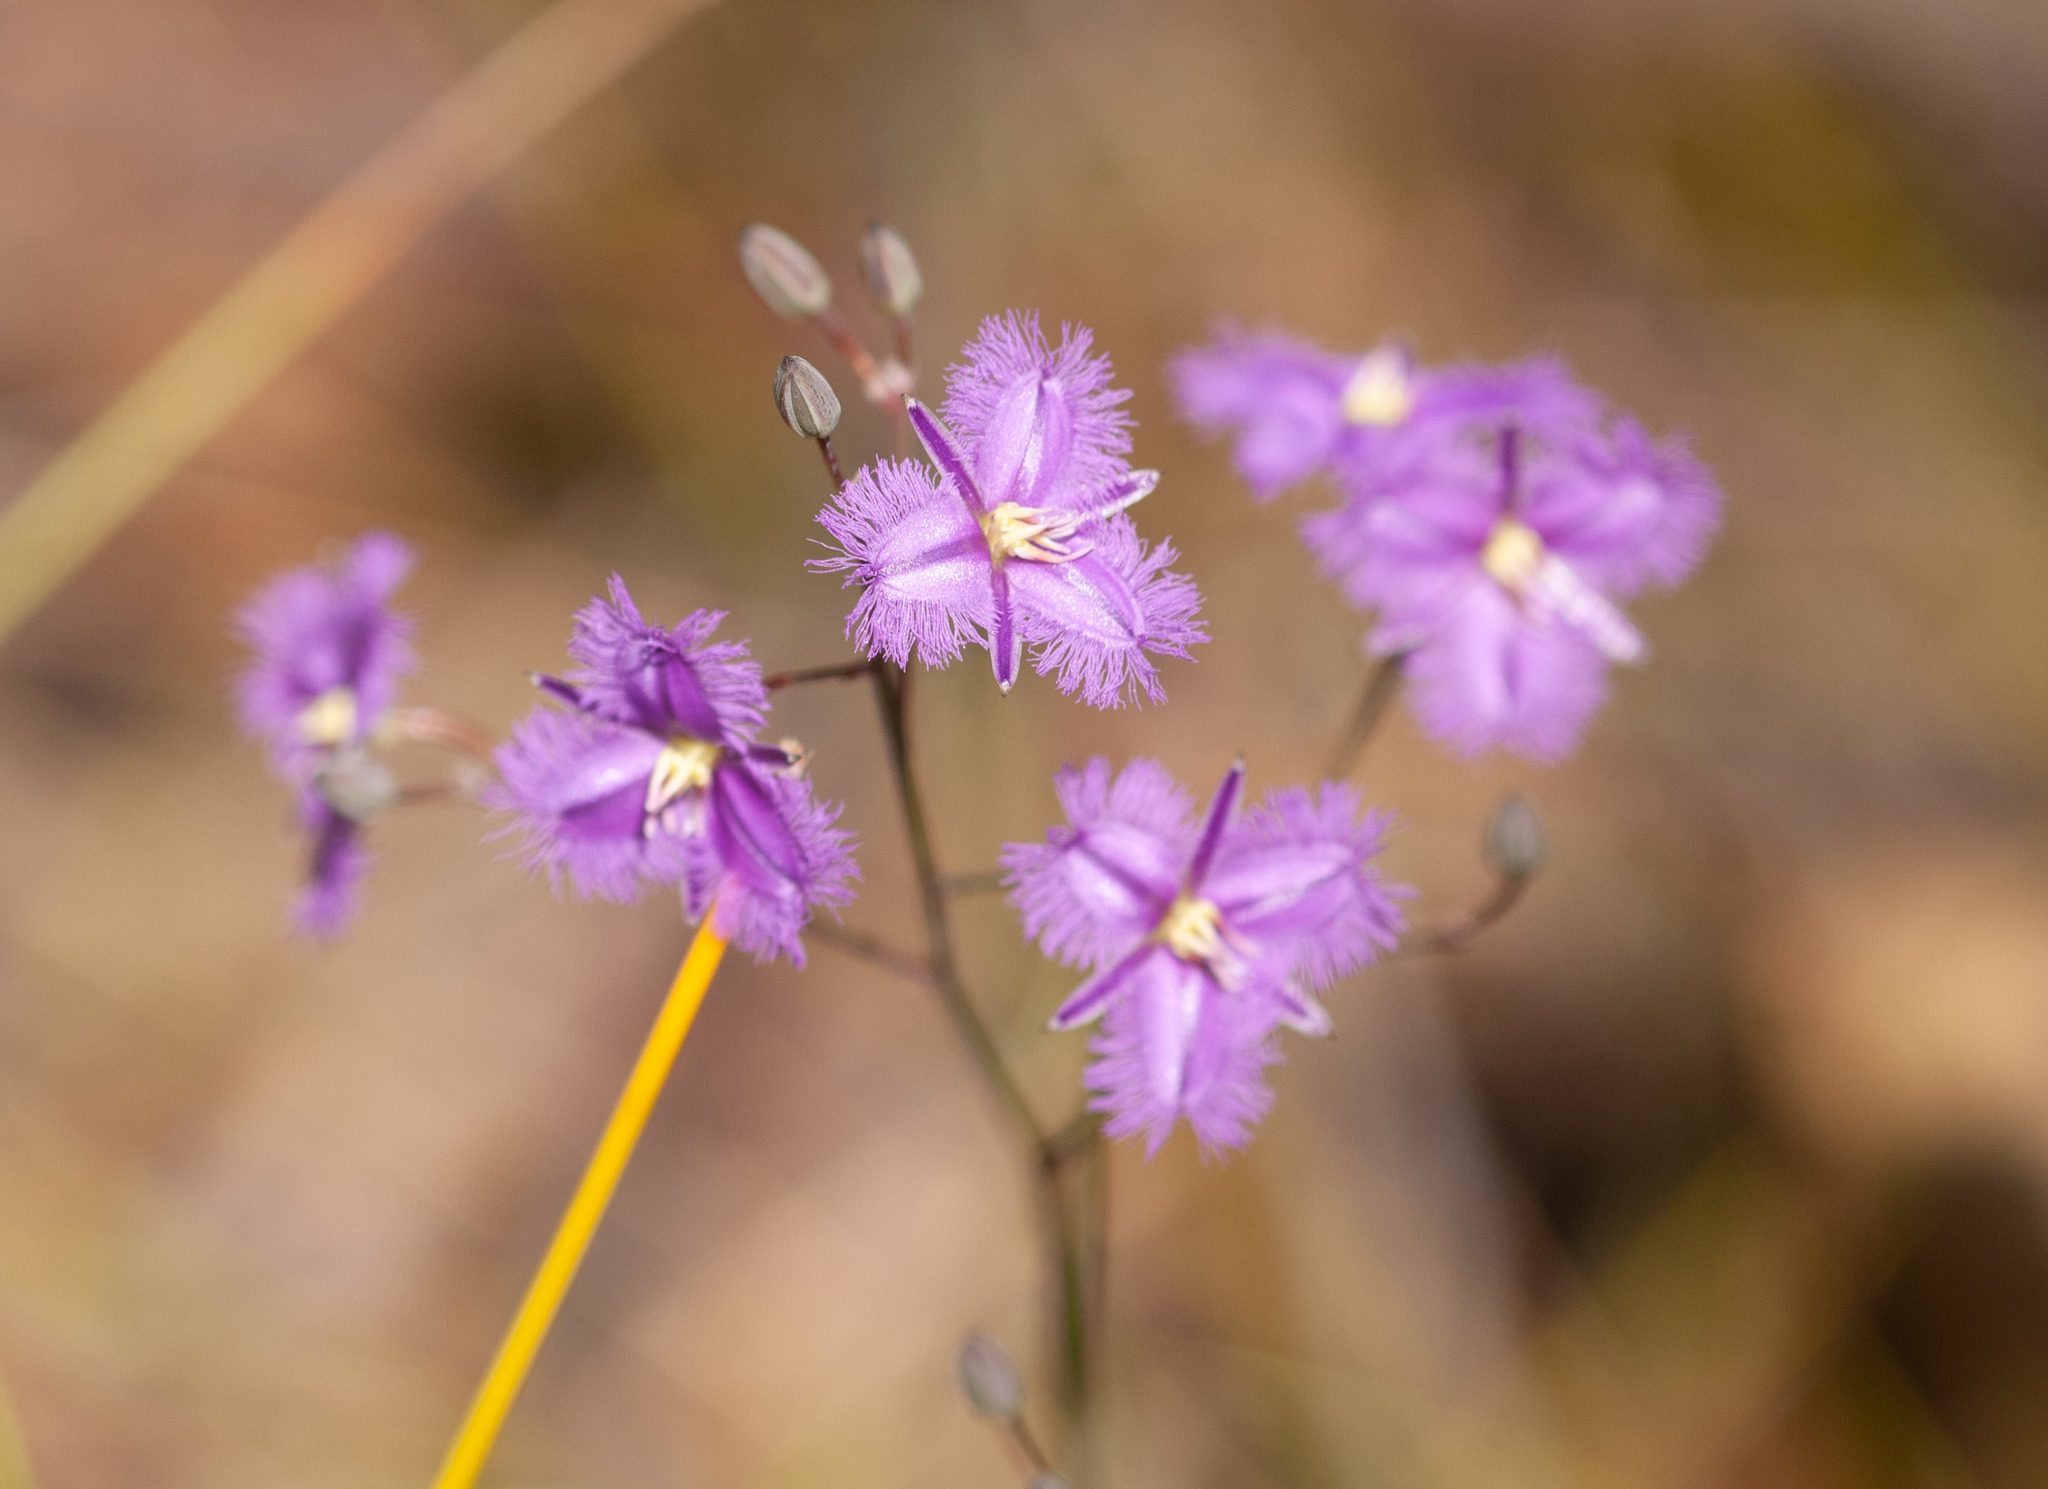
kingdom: Plantae
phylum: Tracheophyta
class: Liliopsida
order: Asparagales
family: Asparagaceae
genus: Thysanotus
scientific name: Thysanotus tuberosus
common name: Common fringed-lily
